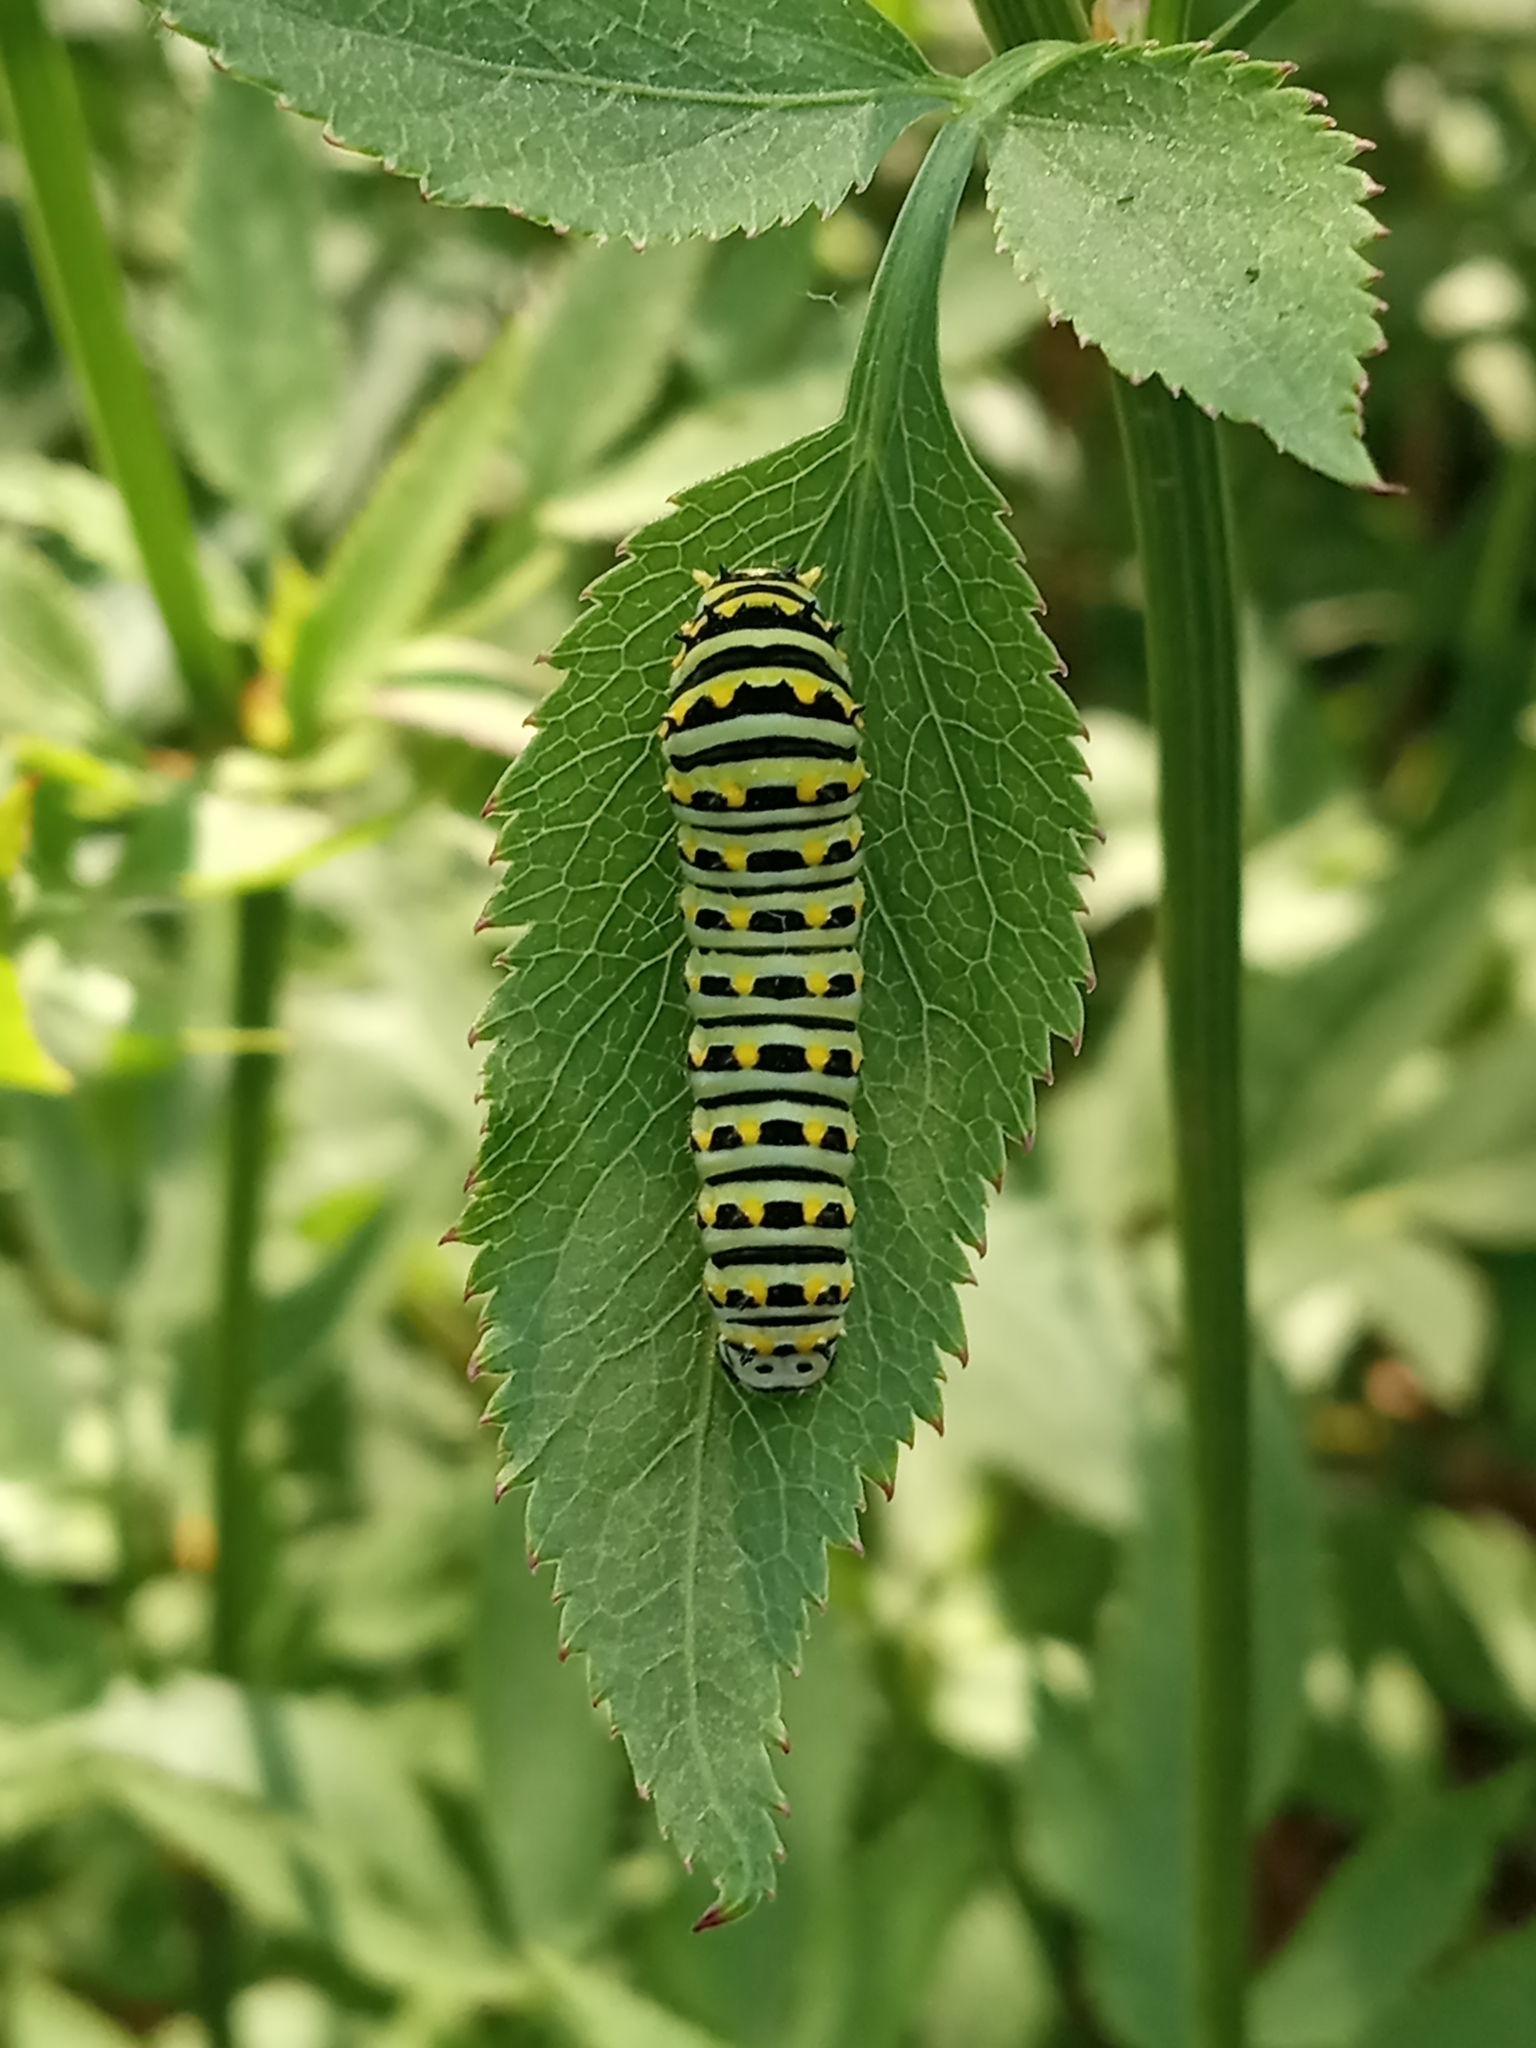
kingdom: Animalia
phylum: Arthropoda
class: Insecta
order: Lepidoptera
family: Papilionidae
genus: Papilio
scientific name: Papilio polyxenes
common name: Black swallowtail
